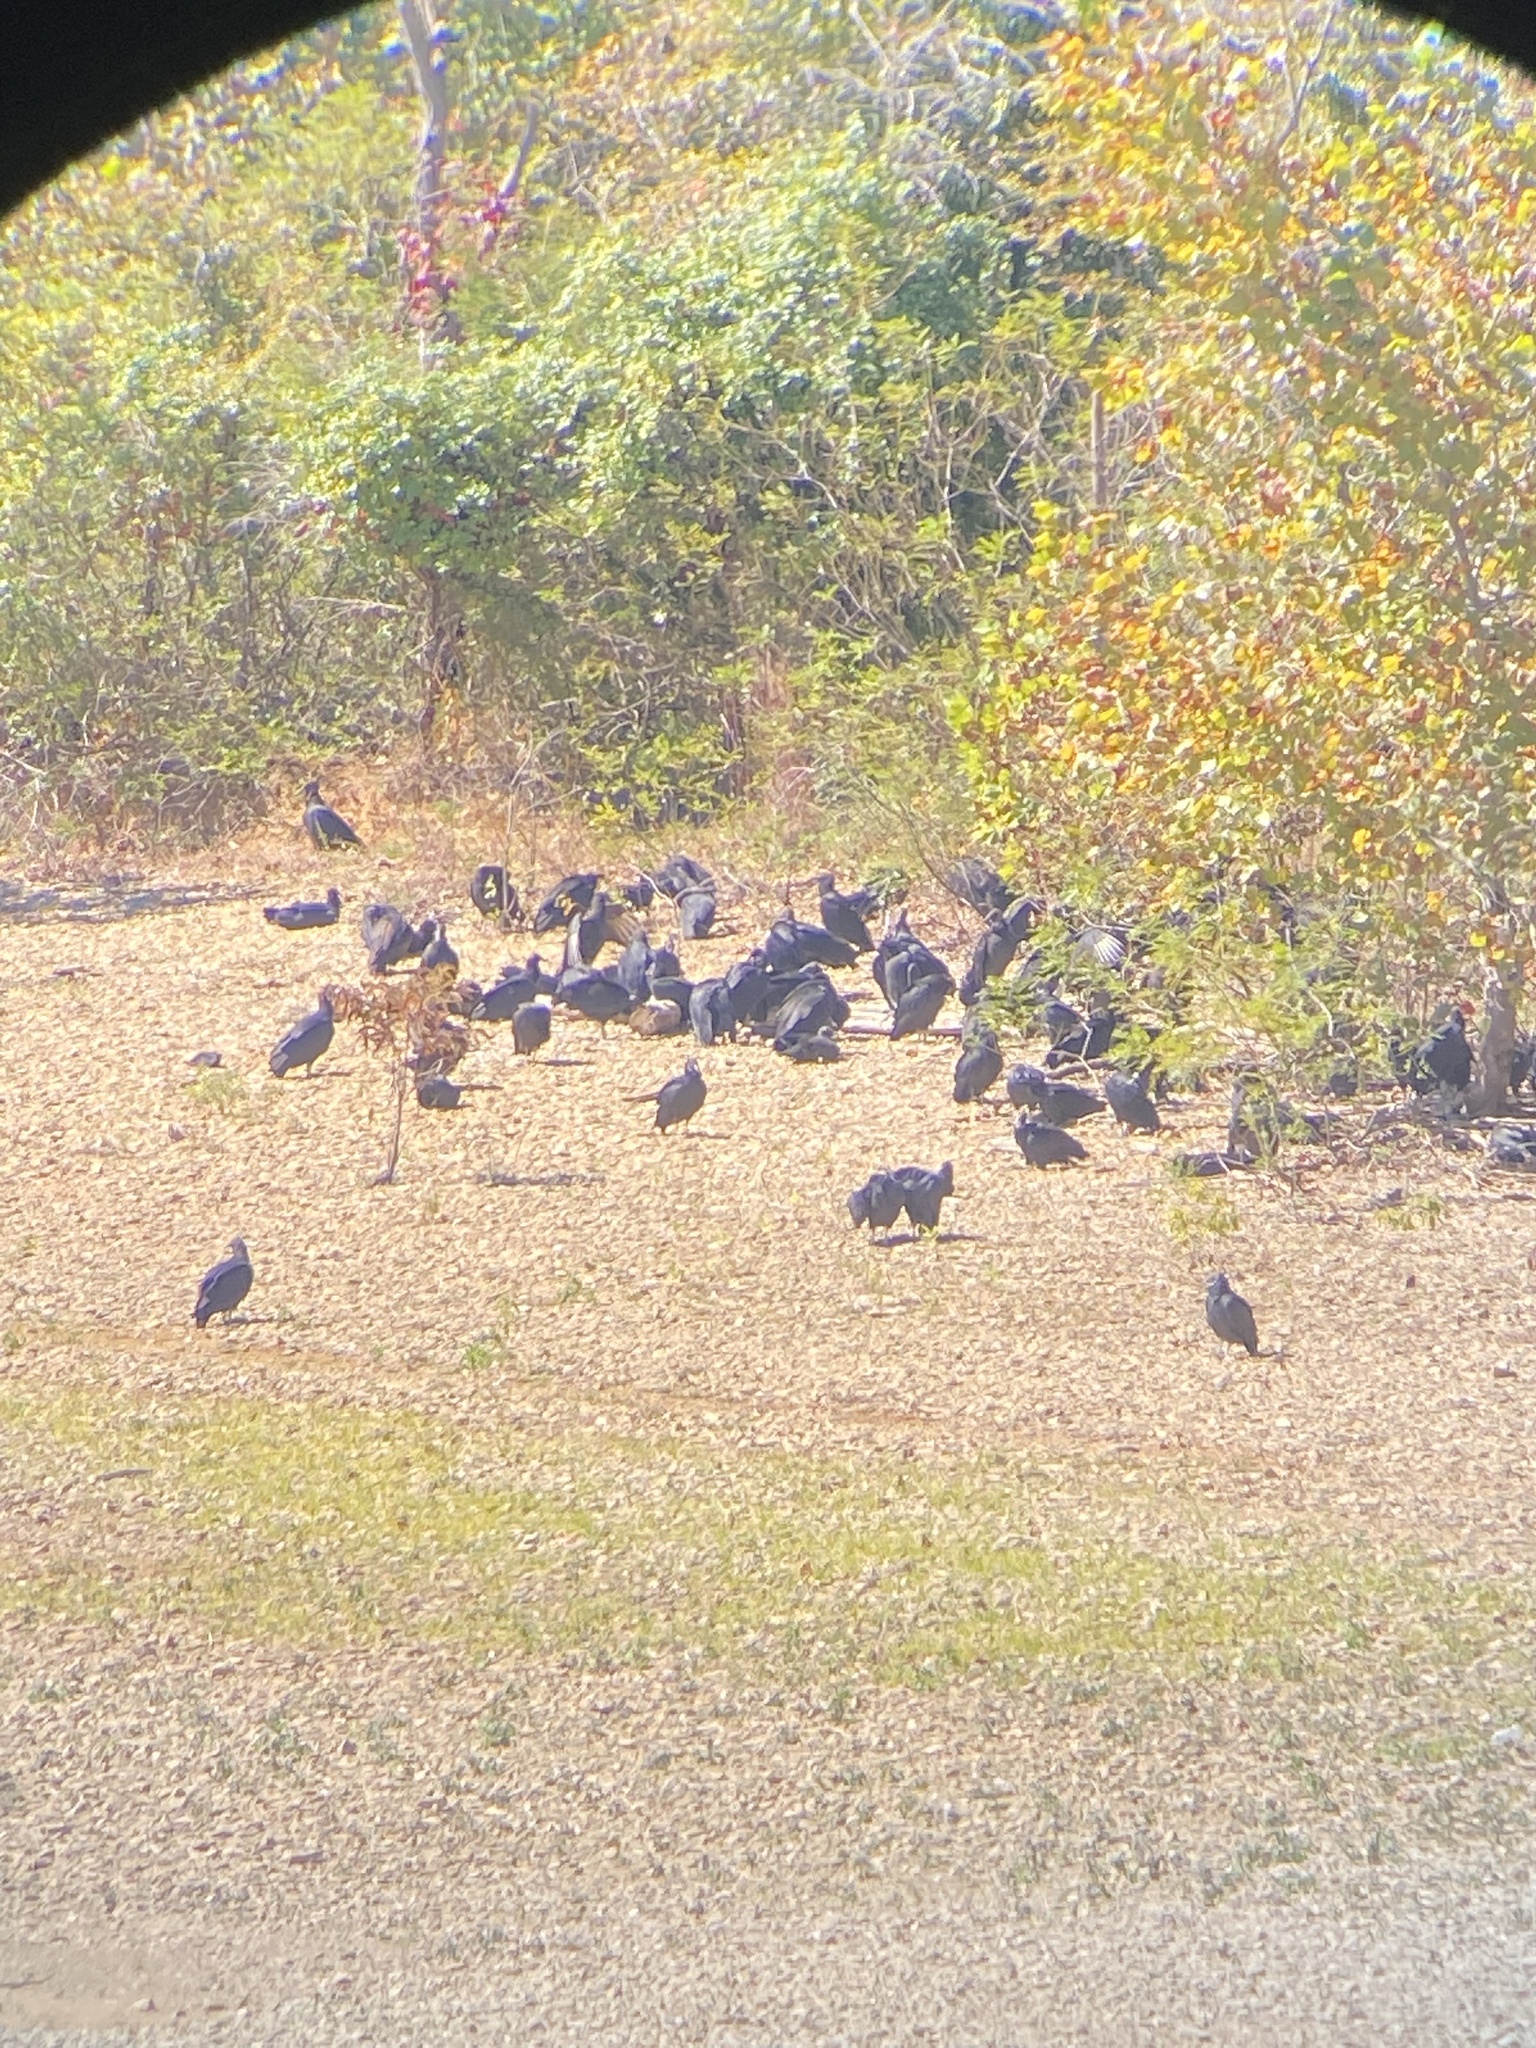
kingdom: Animalia
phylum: Chordata
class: Aves
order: Accipitriformes
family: Cathartidae
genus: Coragyps
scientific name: Coragyps atratus
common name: Black vulture
